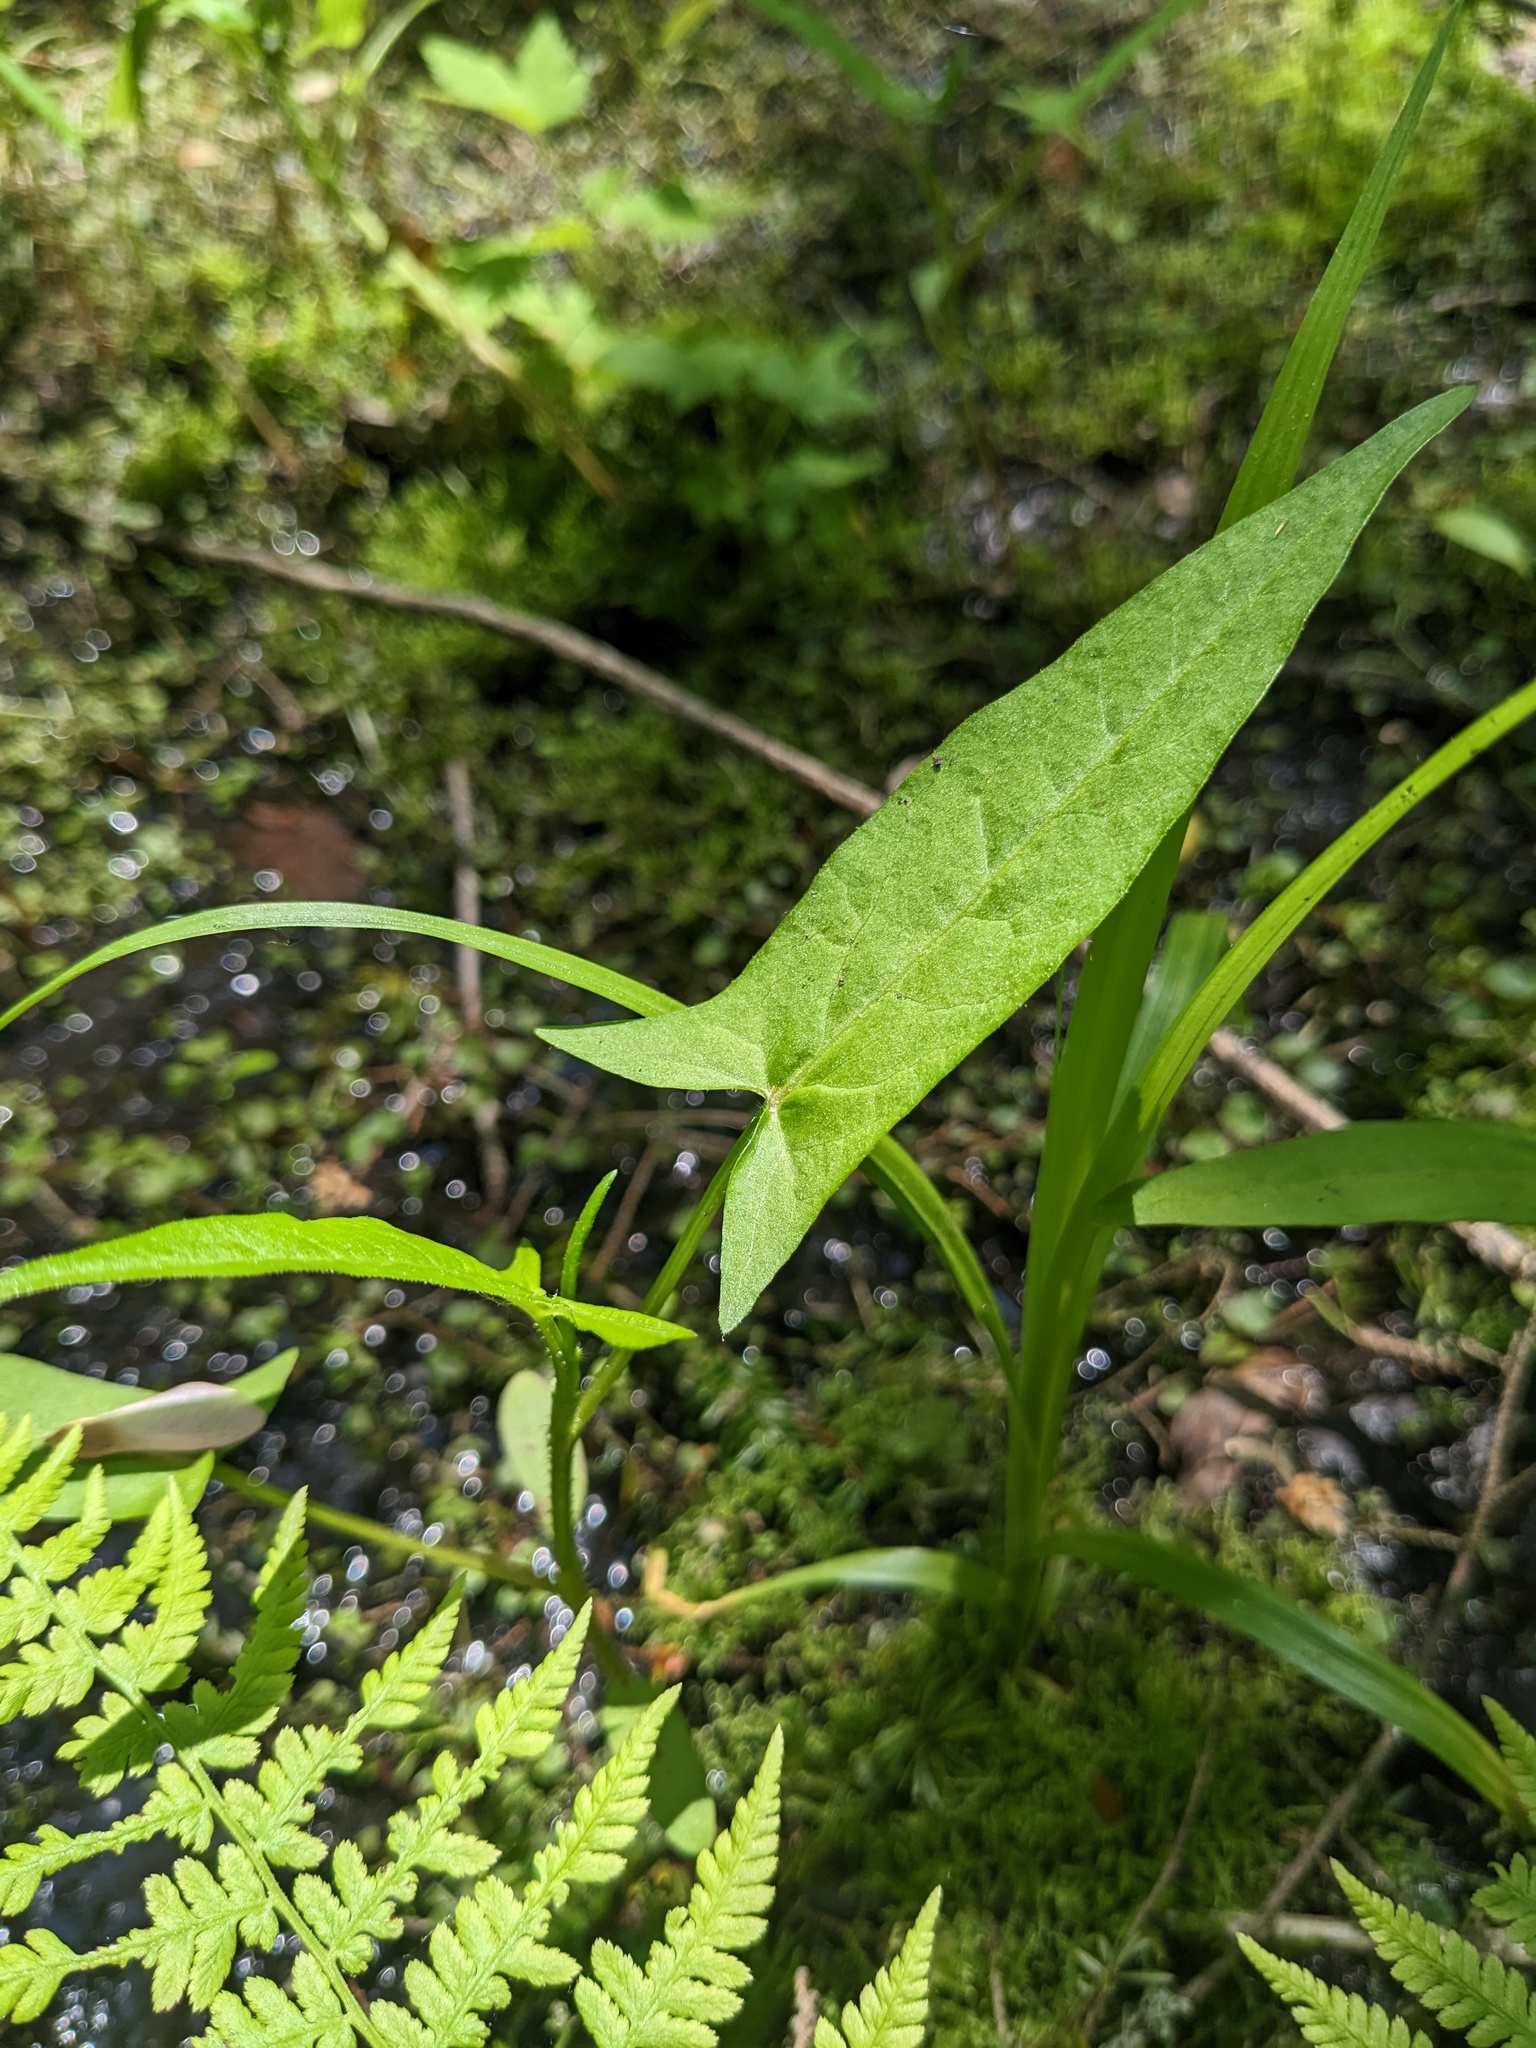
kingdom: Plantae
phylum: Tracheophyta
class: Magnoliopsida
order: Caryophyllales
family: Polygonaceae
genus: Persicaria
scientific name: Persicaria arifolia
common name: Halberd-leaved tear-thumb
